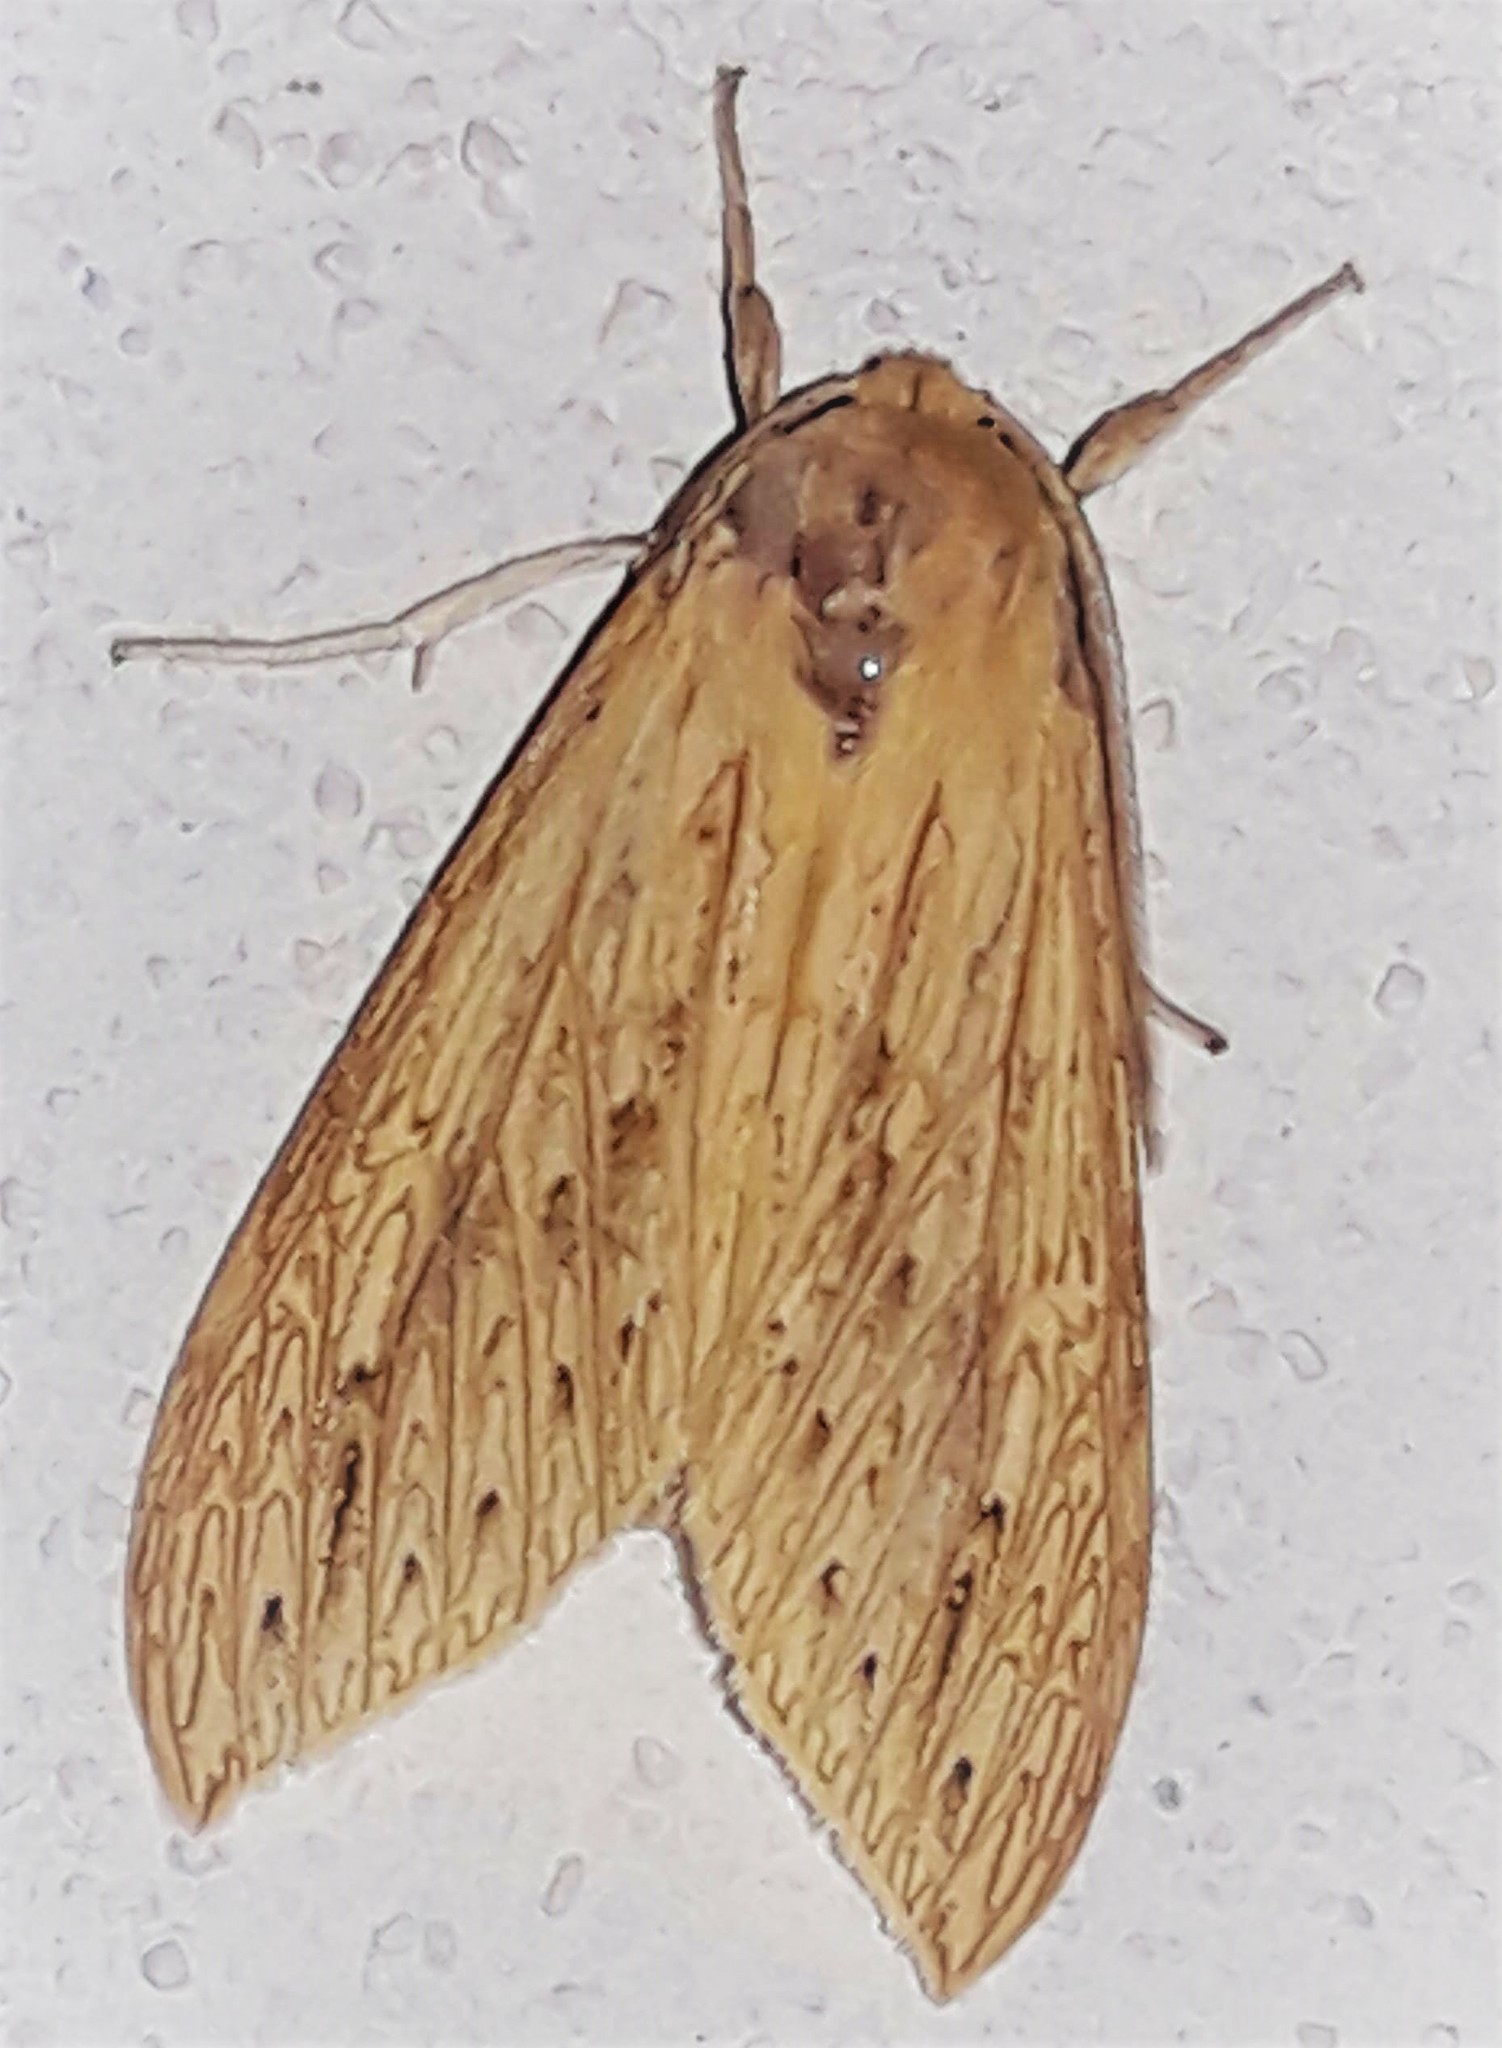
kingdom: Animalia
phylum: Arthropoda
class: Insecta
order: Lepidoptera
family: Erebidae
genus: Leucanopsis
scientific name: Leucanopsis
